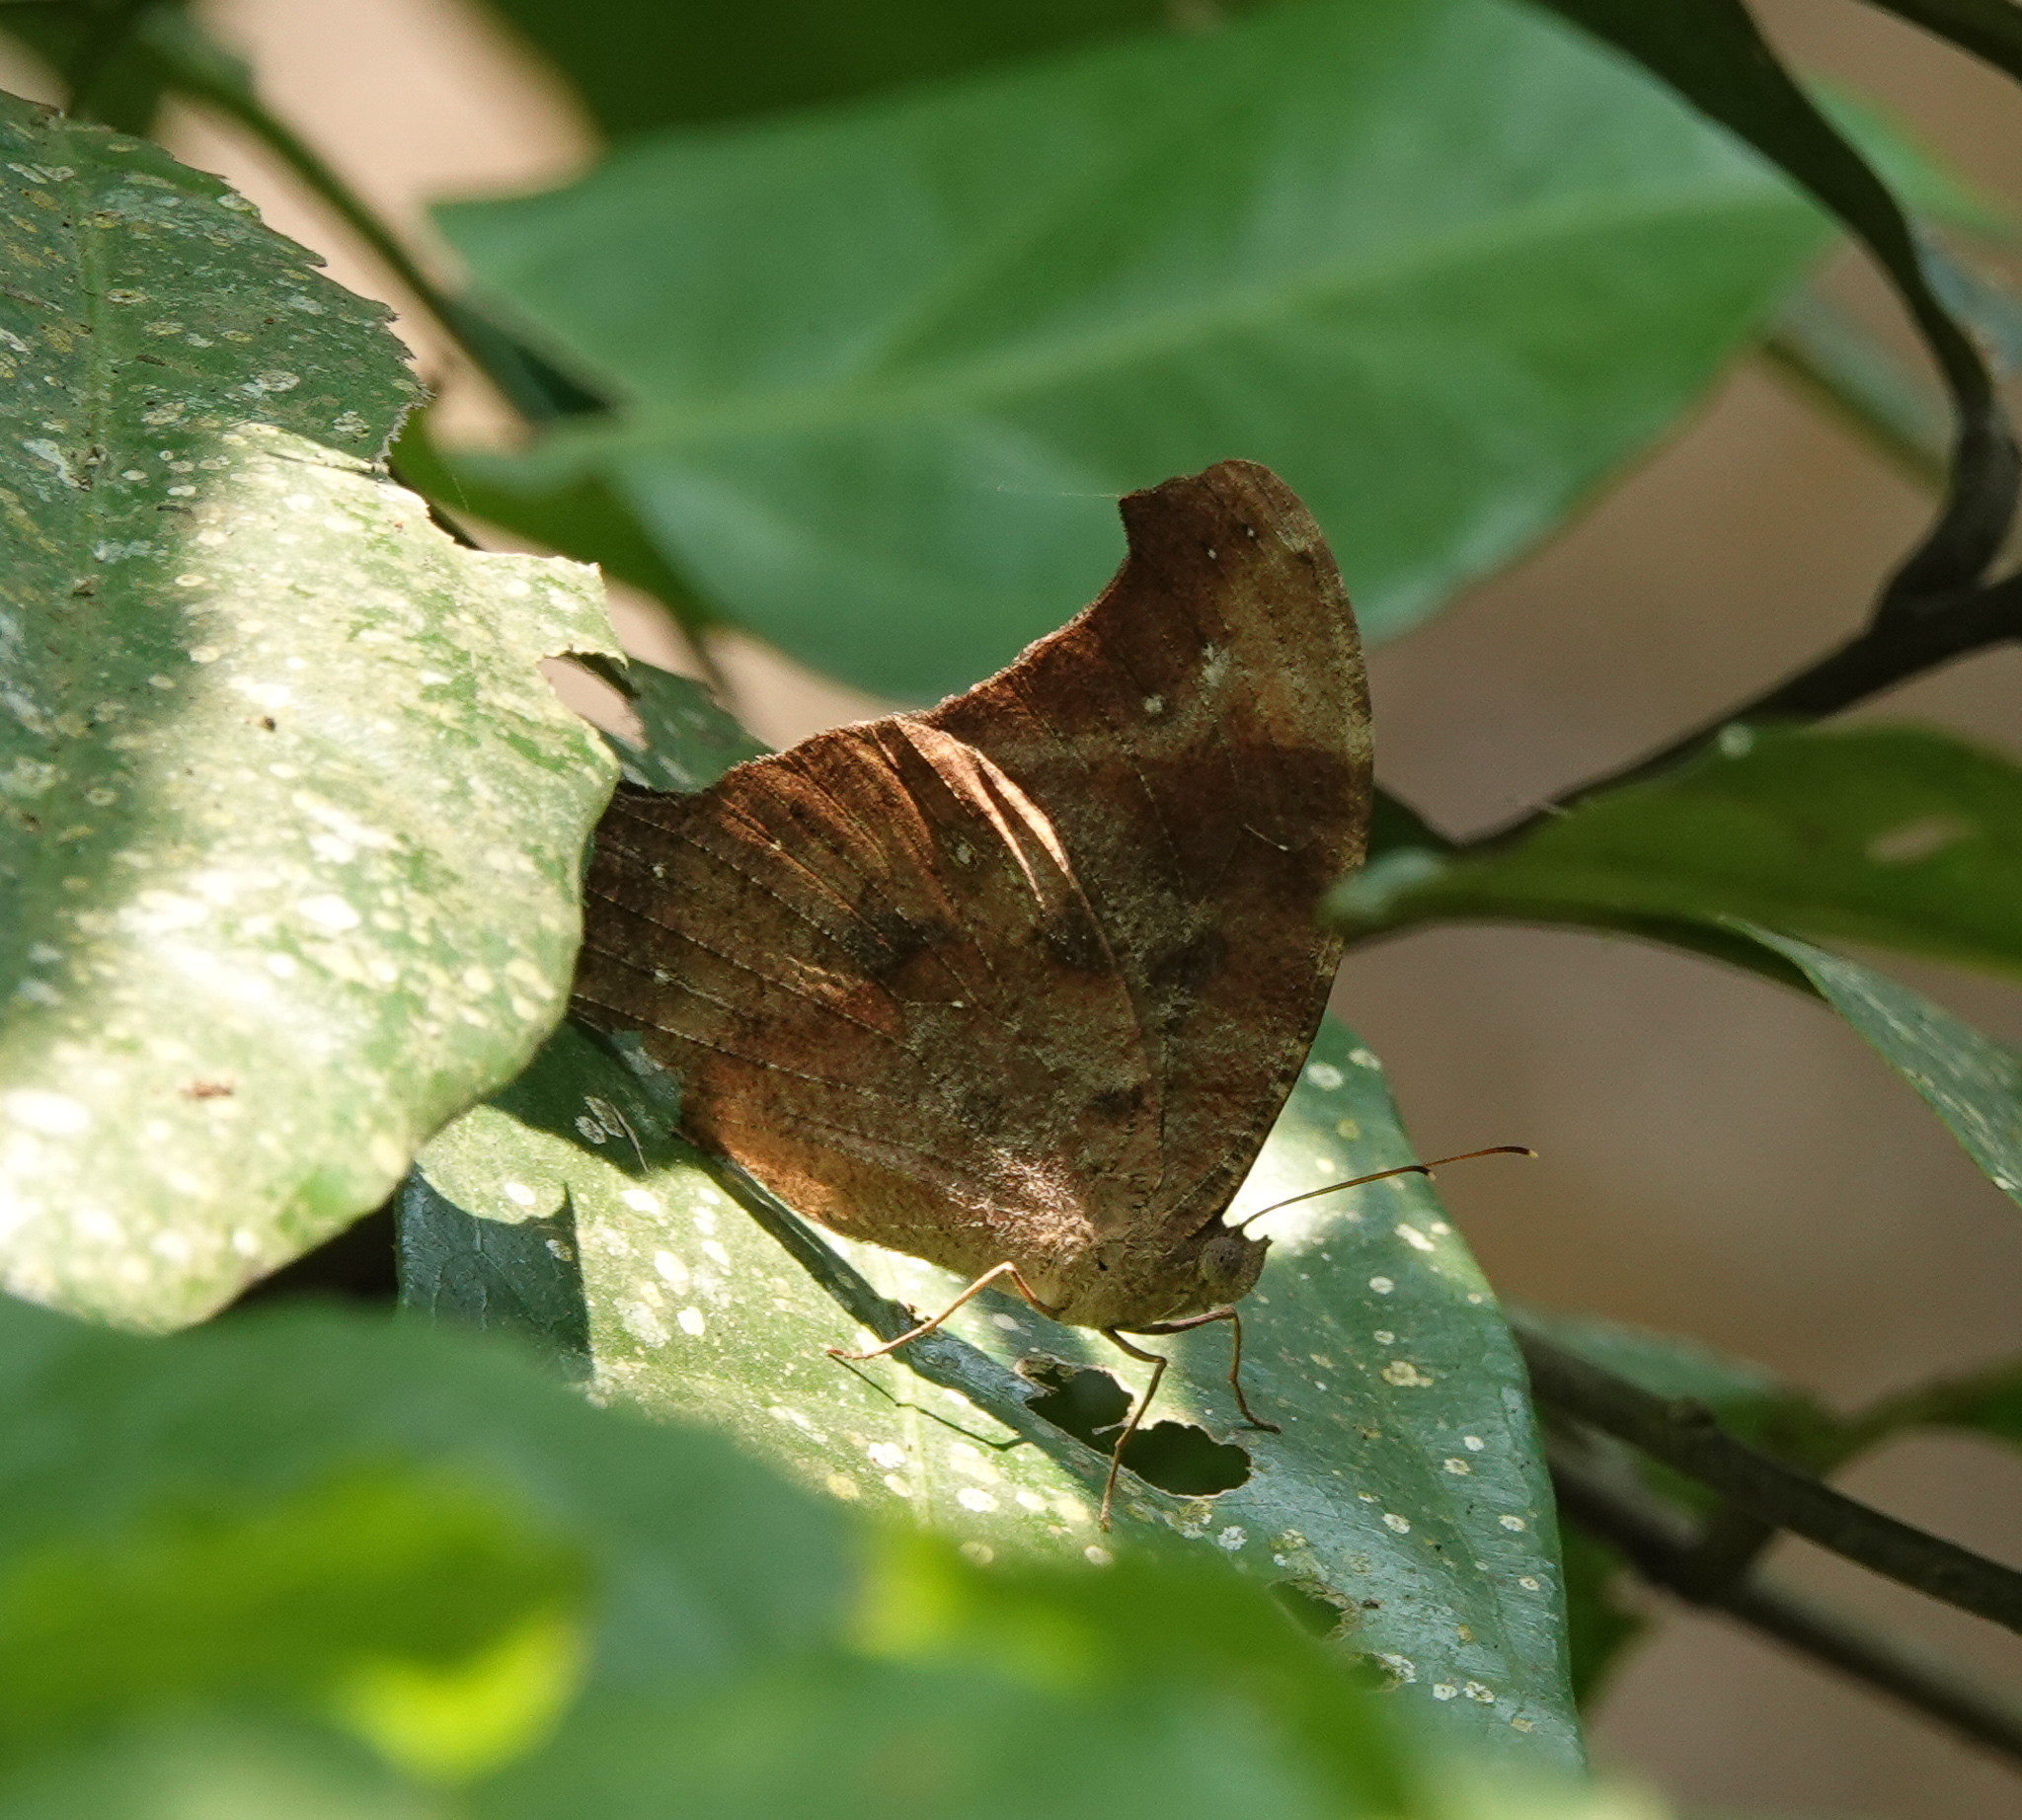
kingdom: Animalia
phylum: Arthropoda
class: Insecta
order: Lepidoptera
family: Nymphalidae
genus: Melanitis
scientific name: Melanitis leda
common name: Twilight brown
